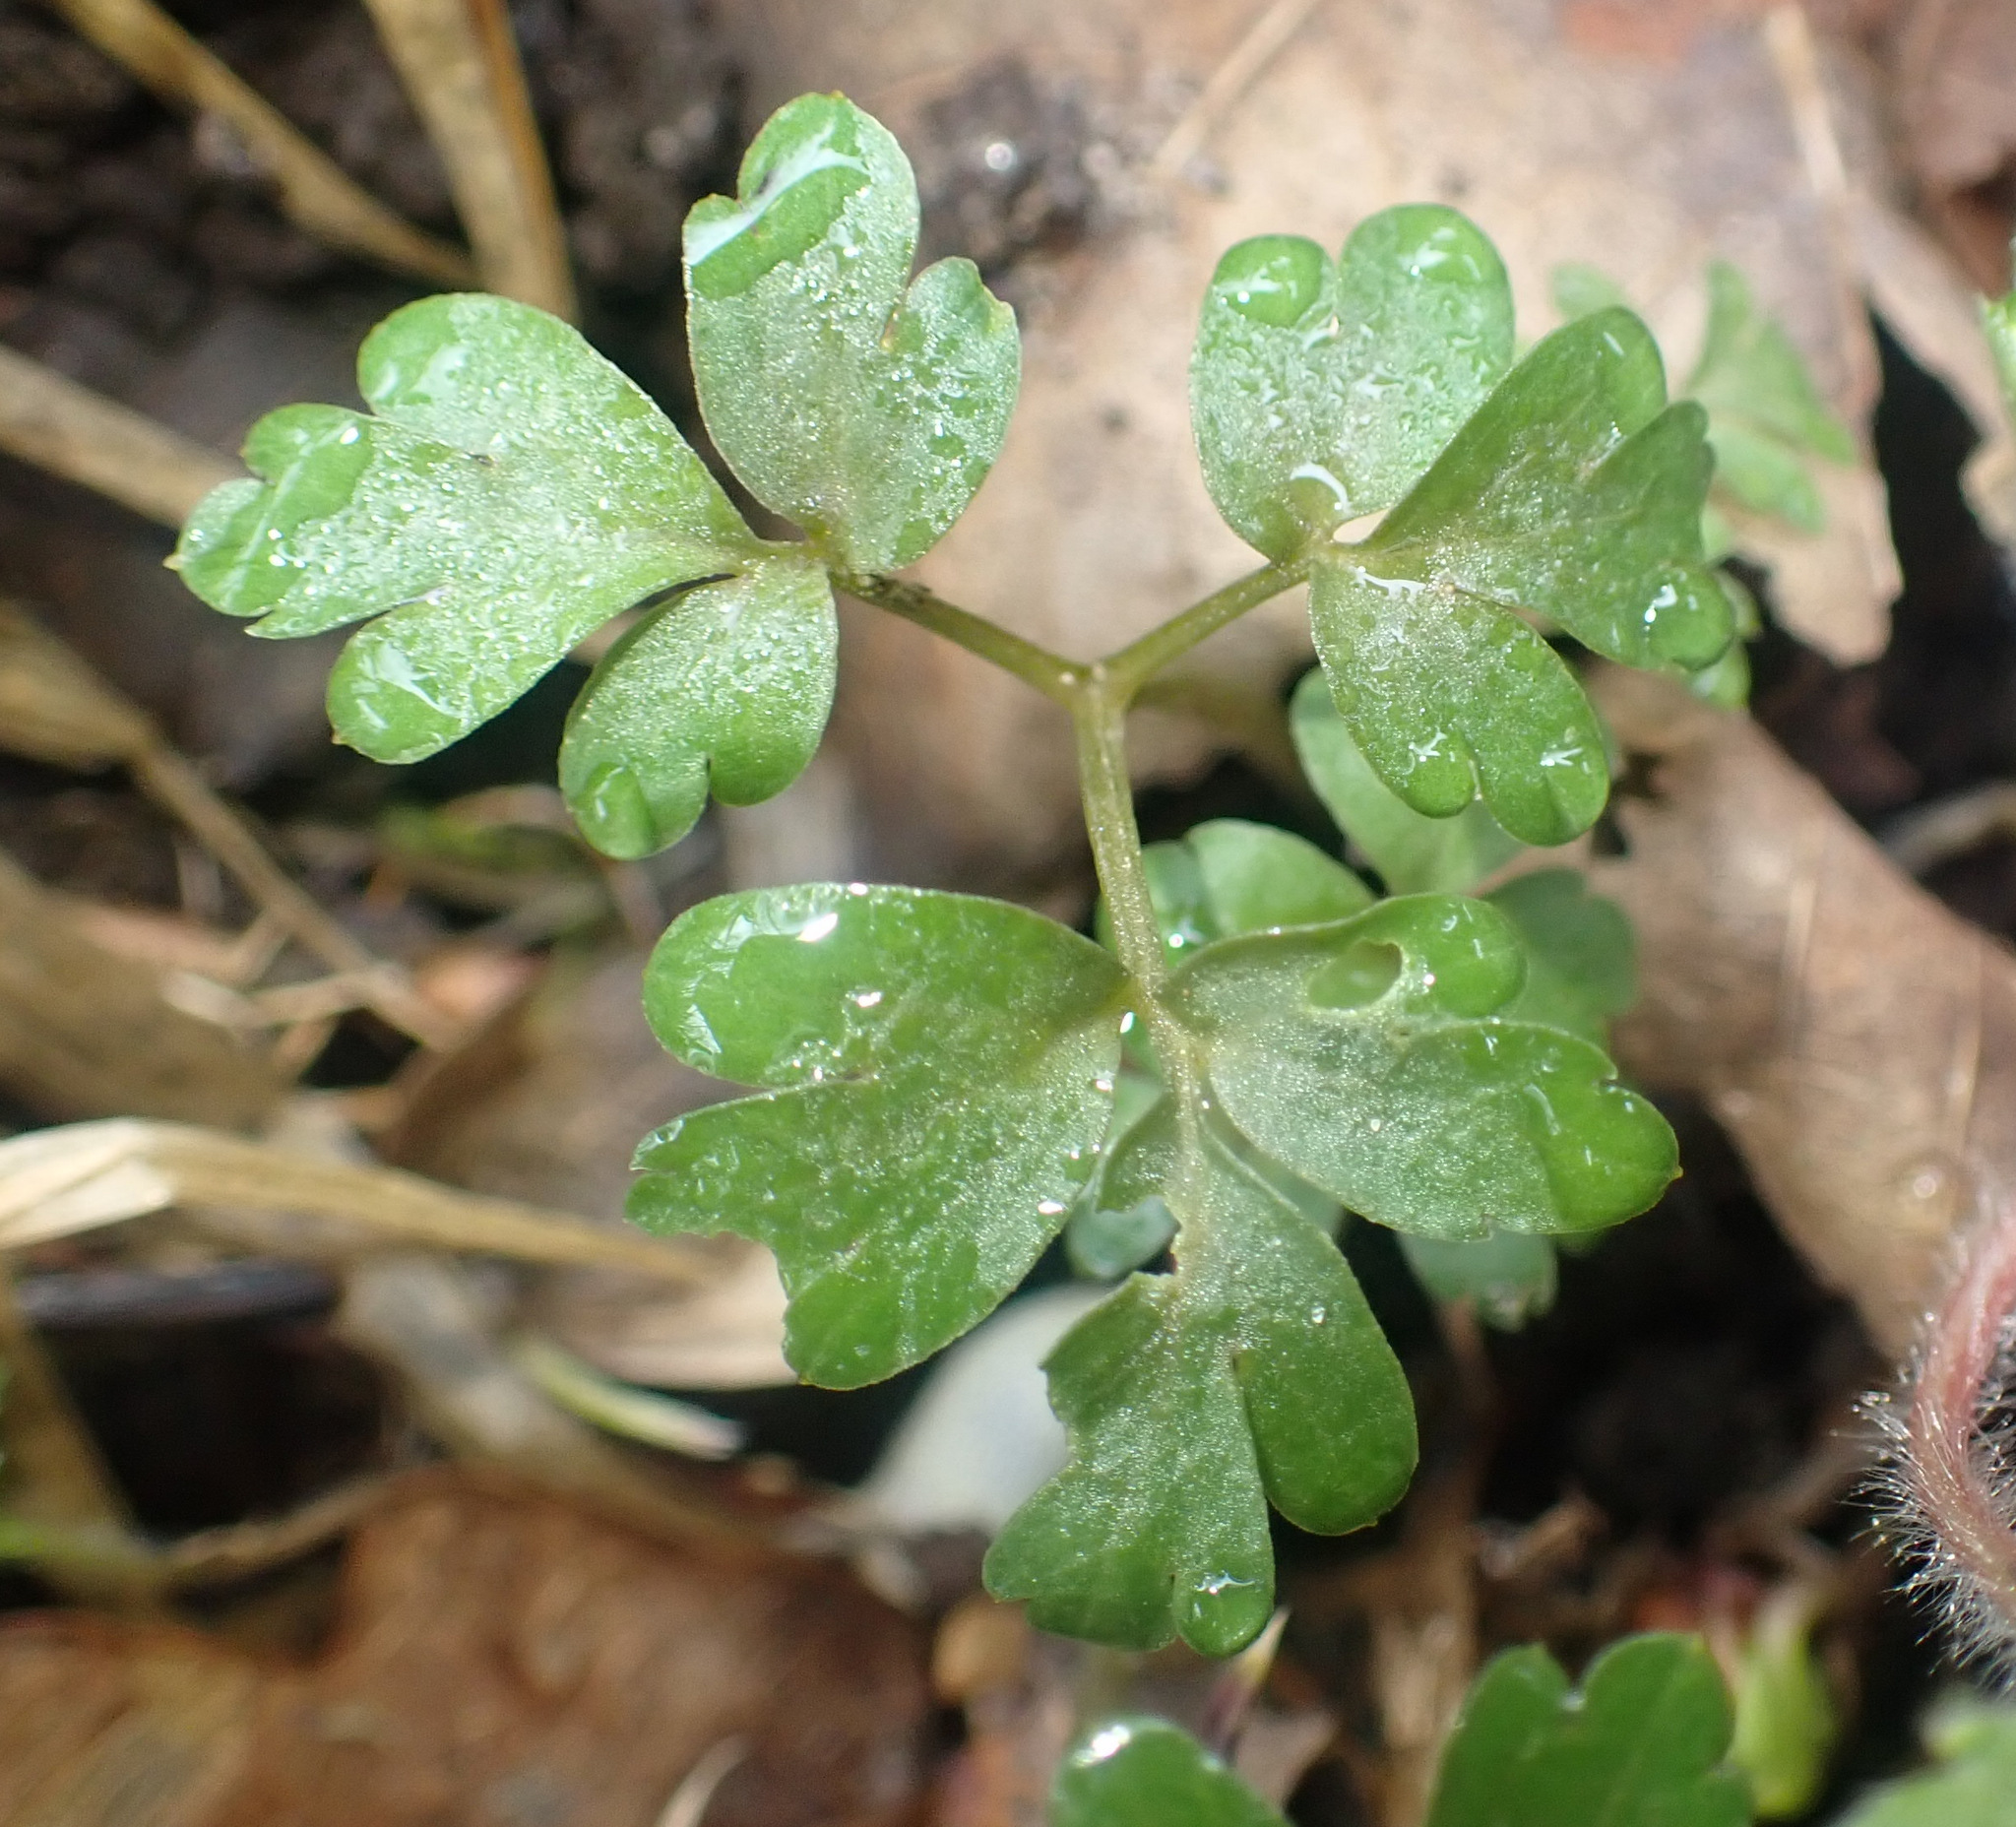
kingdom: Plantae
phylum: Tracheophyta
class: Magnoliopsida
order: Dipsacales
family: Viburnaceae
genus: Adoxa
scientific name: Adoxa moschatellina
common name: Moschatel
